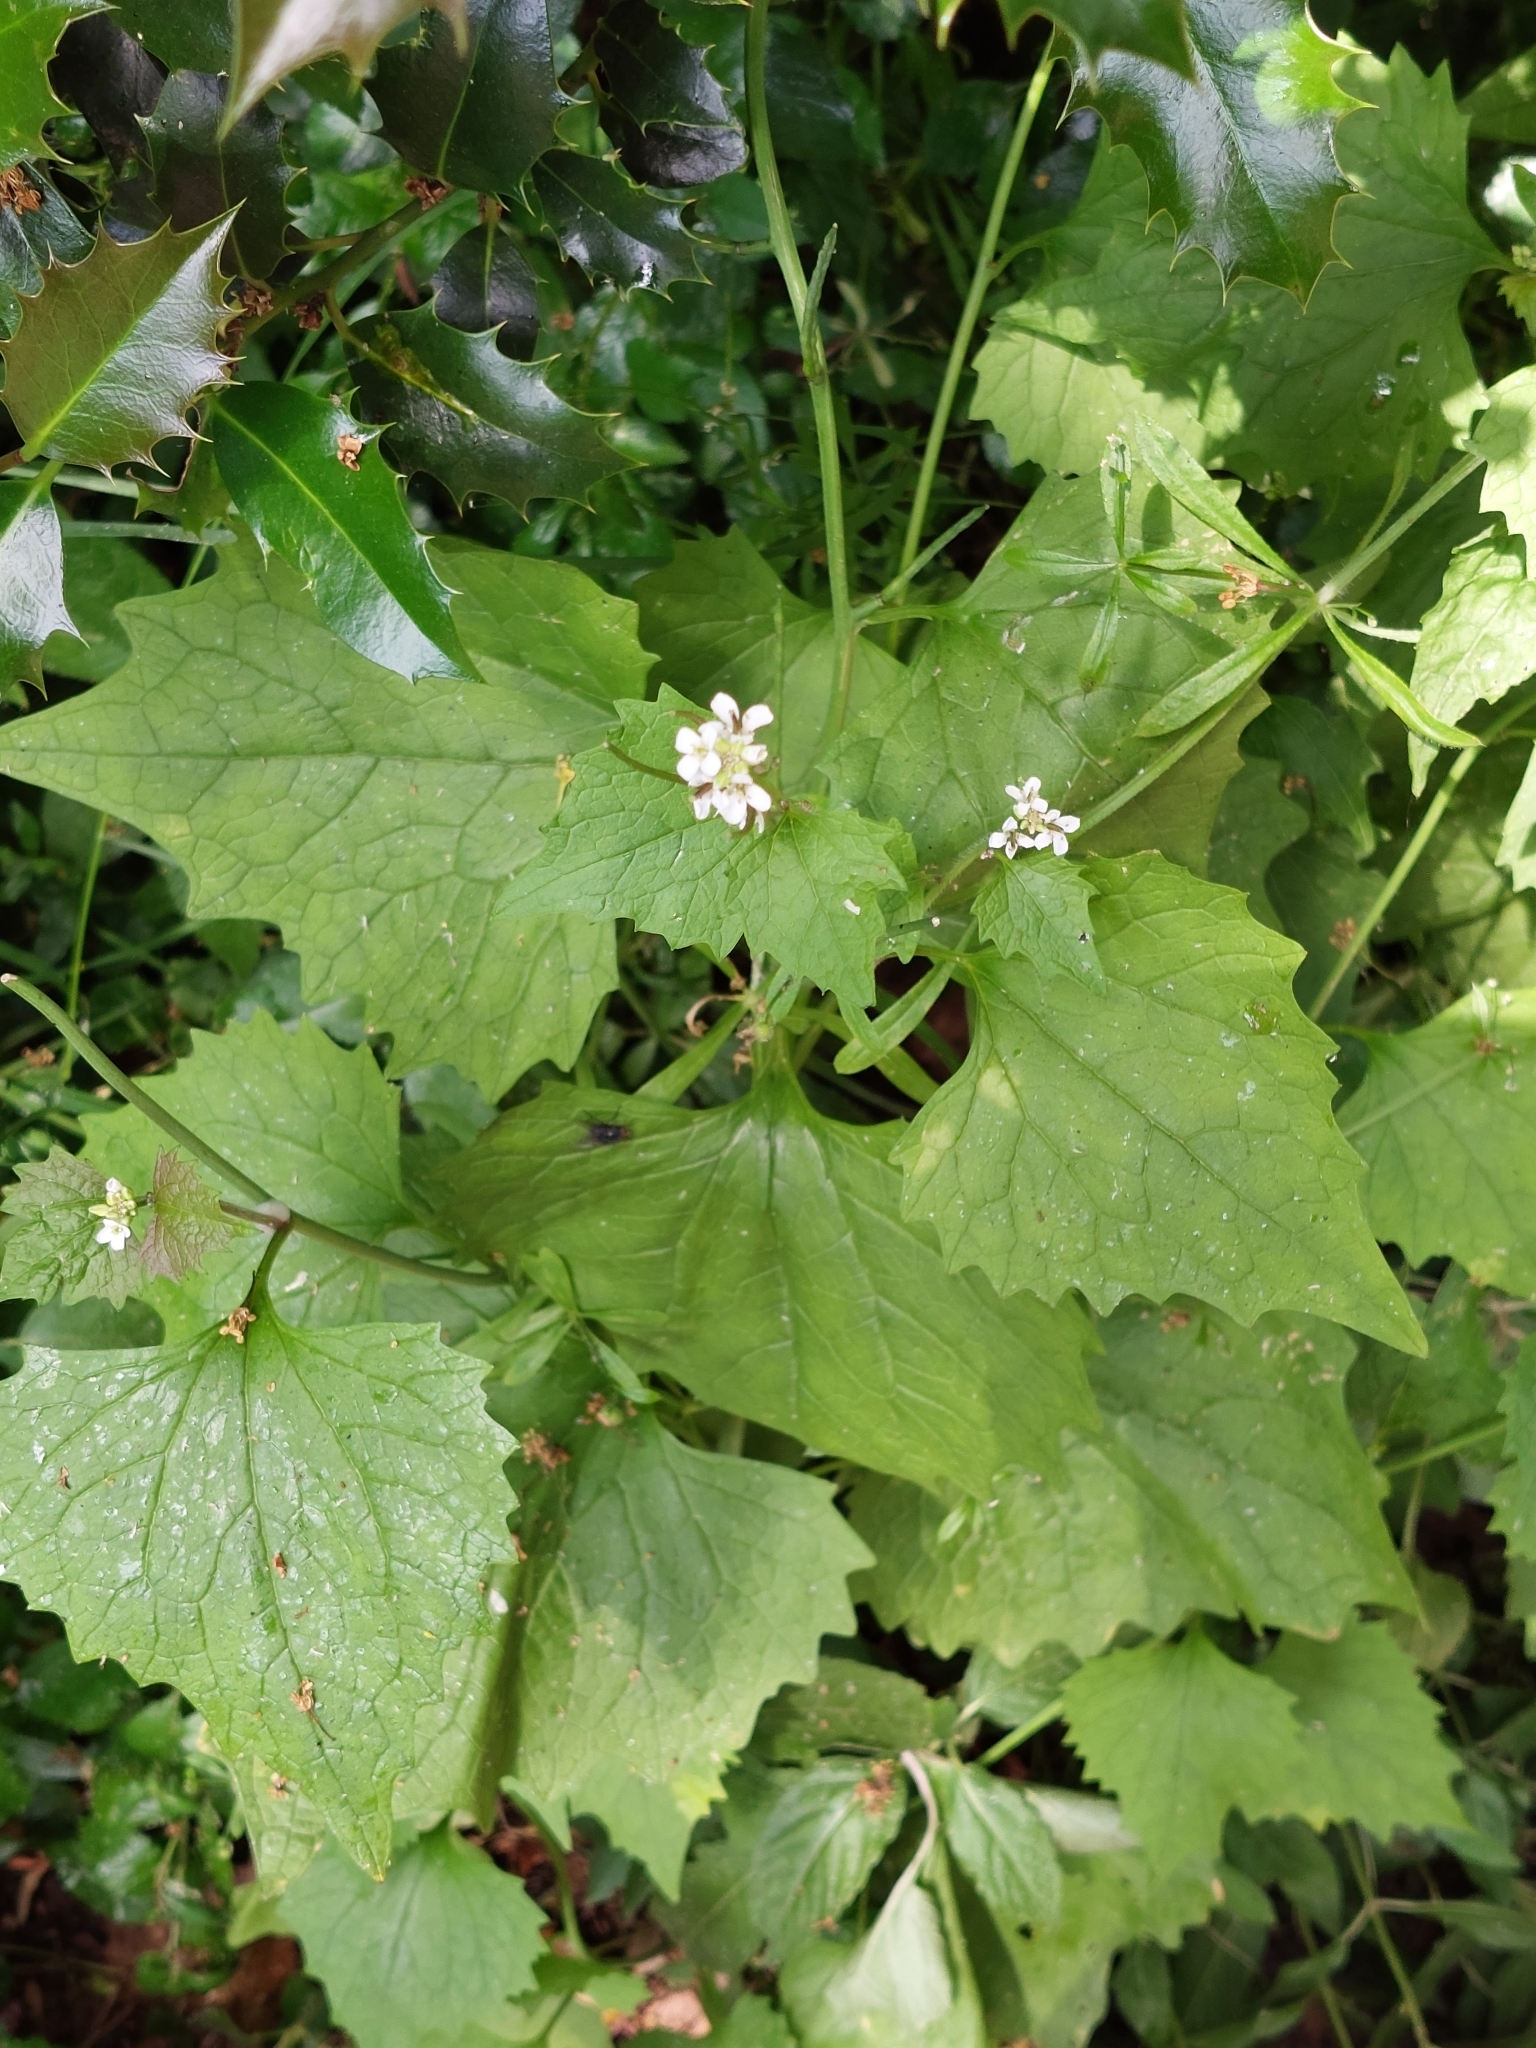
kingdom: Plantae
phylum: Tracheophyta
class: Magnoliopsida
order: Brassicales
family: Brassicaceae
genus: Alliaria
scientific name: Alliaria petiolata
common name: Garlic mustard
